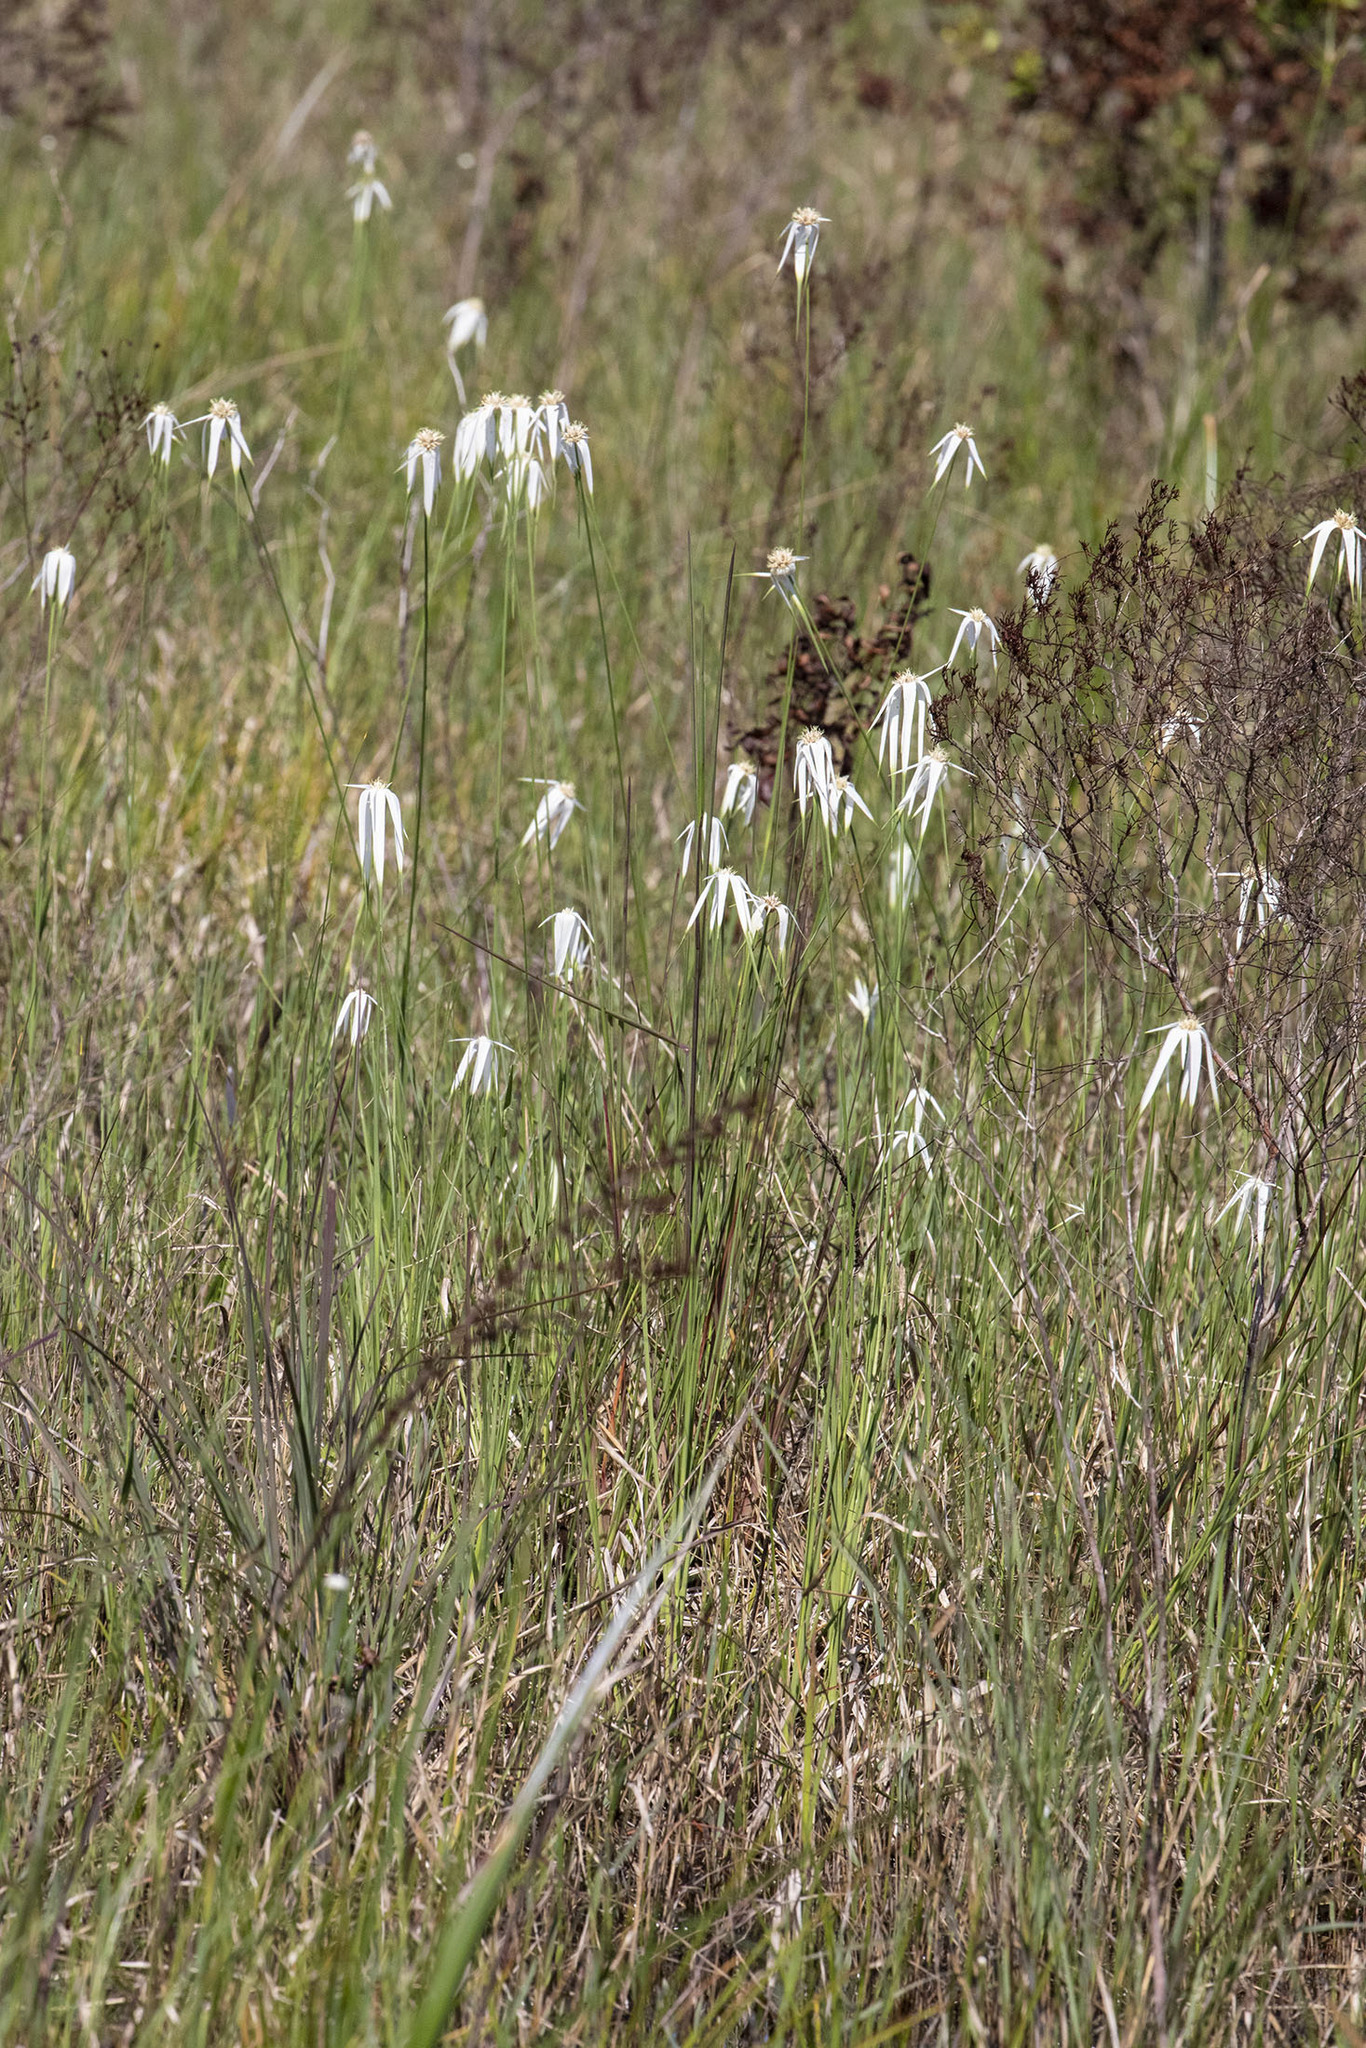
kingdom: Plantae
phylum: Tracheophyta
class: Liliopsida
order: Poales
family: Cyperaceae
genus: Rhynchospora
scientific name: Rhynchospora latifolia
